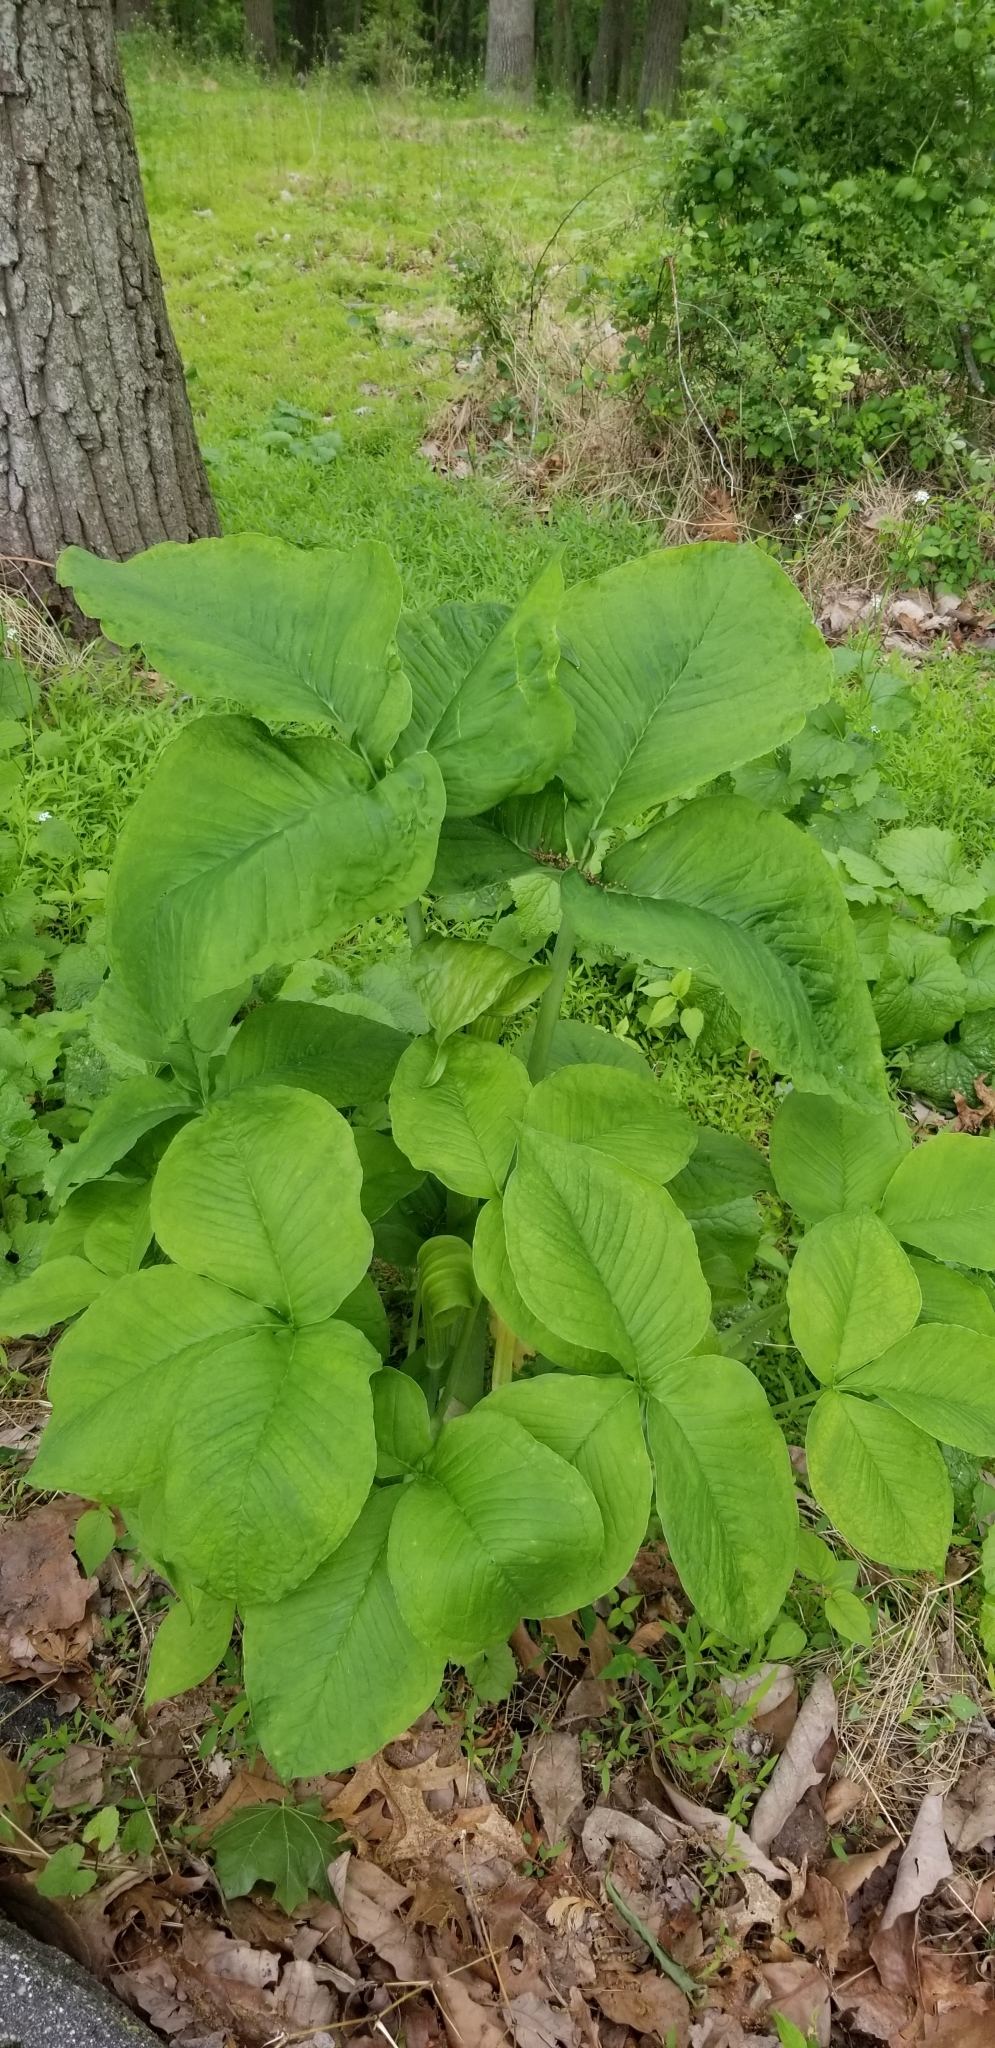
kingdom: Plantae
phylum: Tracheophyta
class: Liliopsida
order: Alismatales
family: Araceae
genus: Arisaema
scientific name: Arisaema triphyllum
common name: Jack-in-the-pulpit
